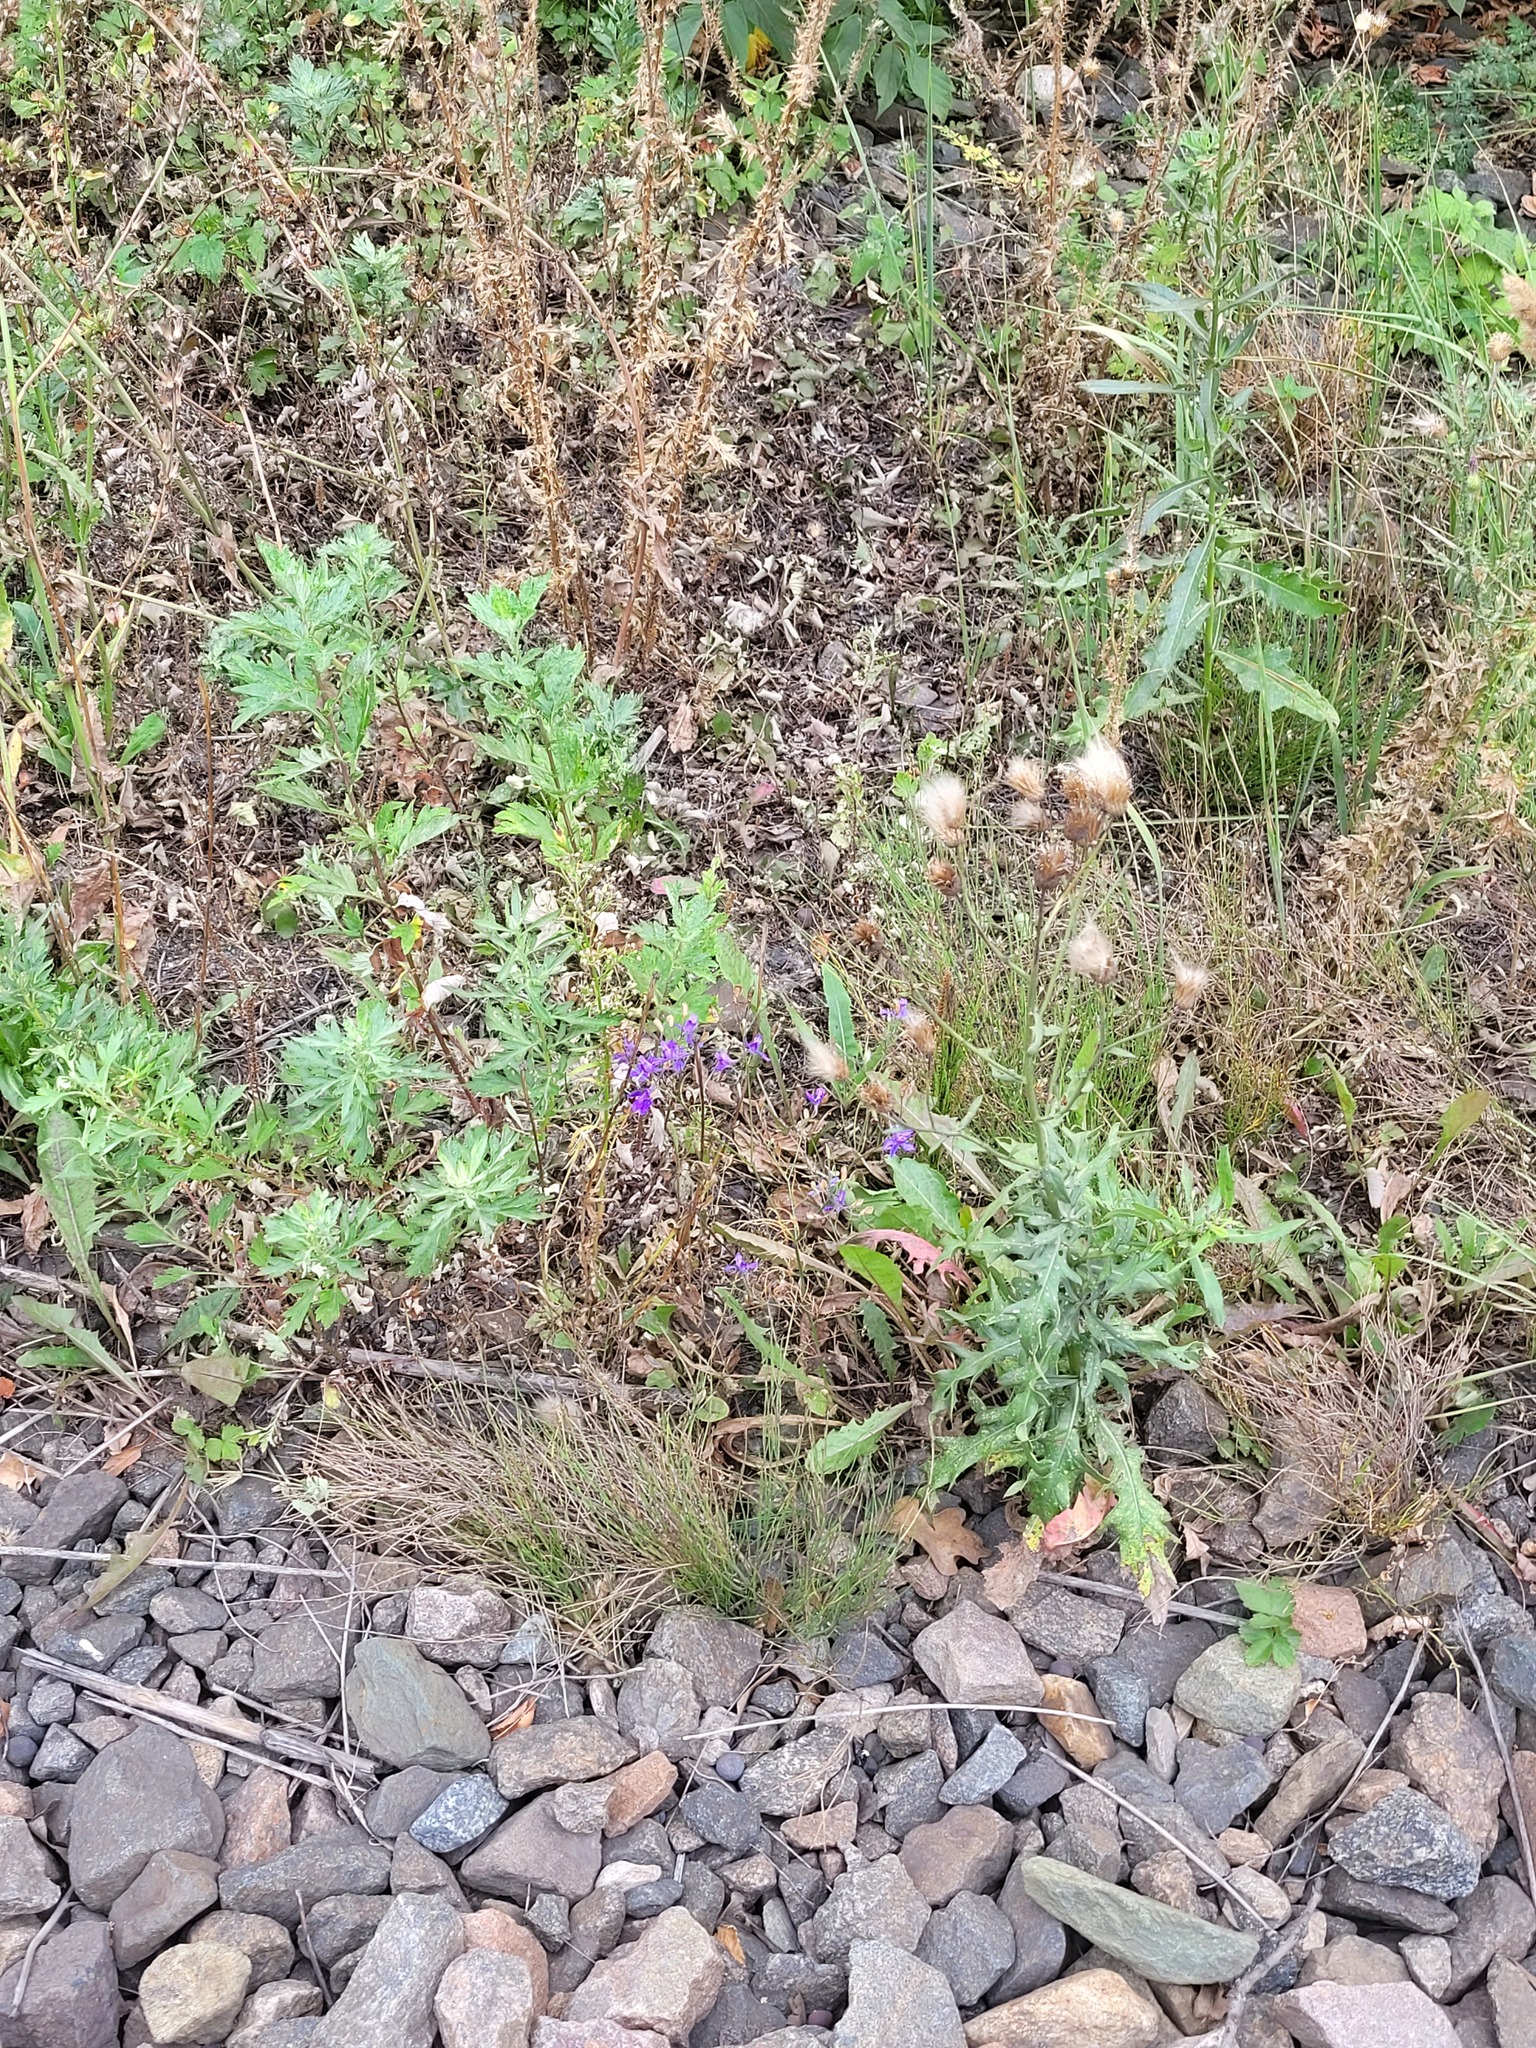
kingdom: Plantae
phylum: Tracheophyta
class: Magnoliopsida
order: Ranunculales
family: Ranunculaceae
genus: Delphinium
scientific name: Delphinium consolida
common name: Branching larkspur
